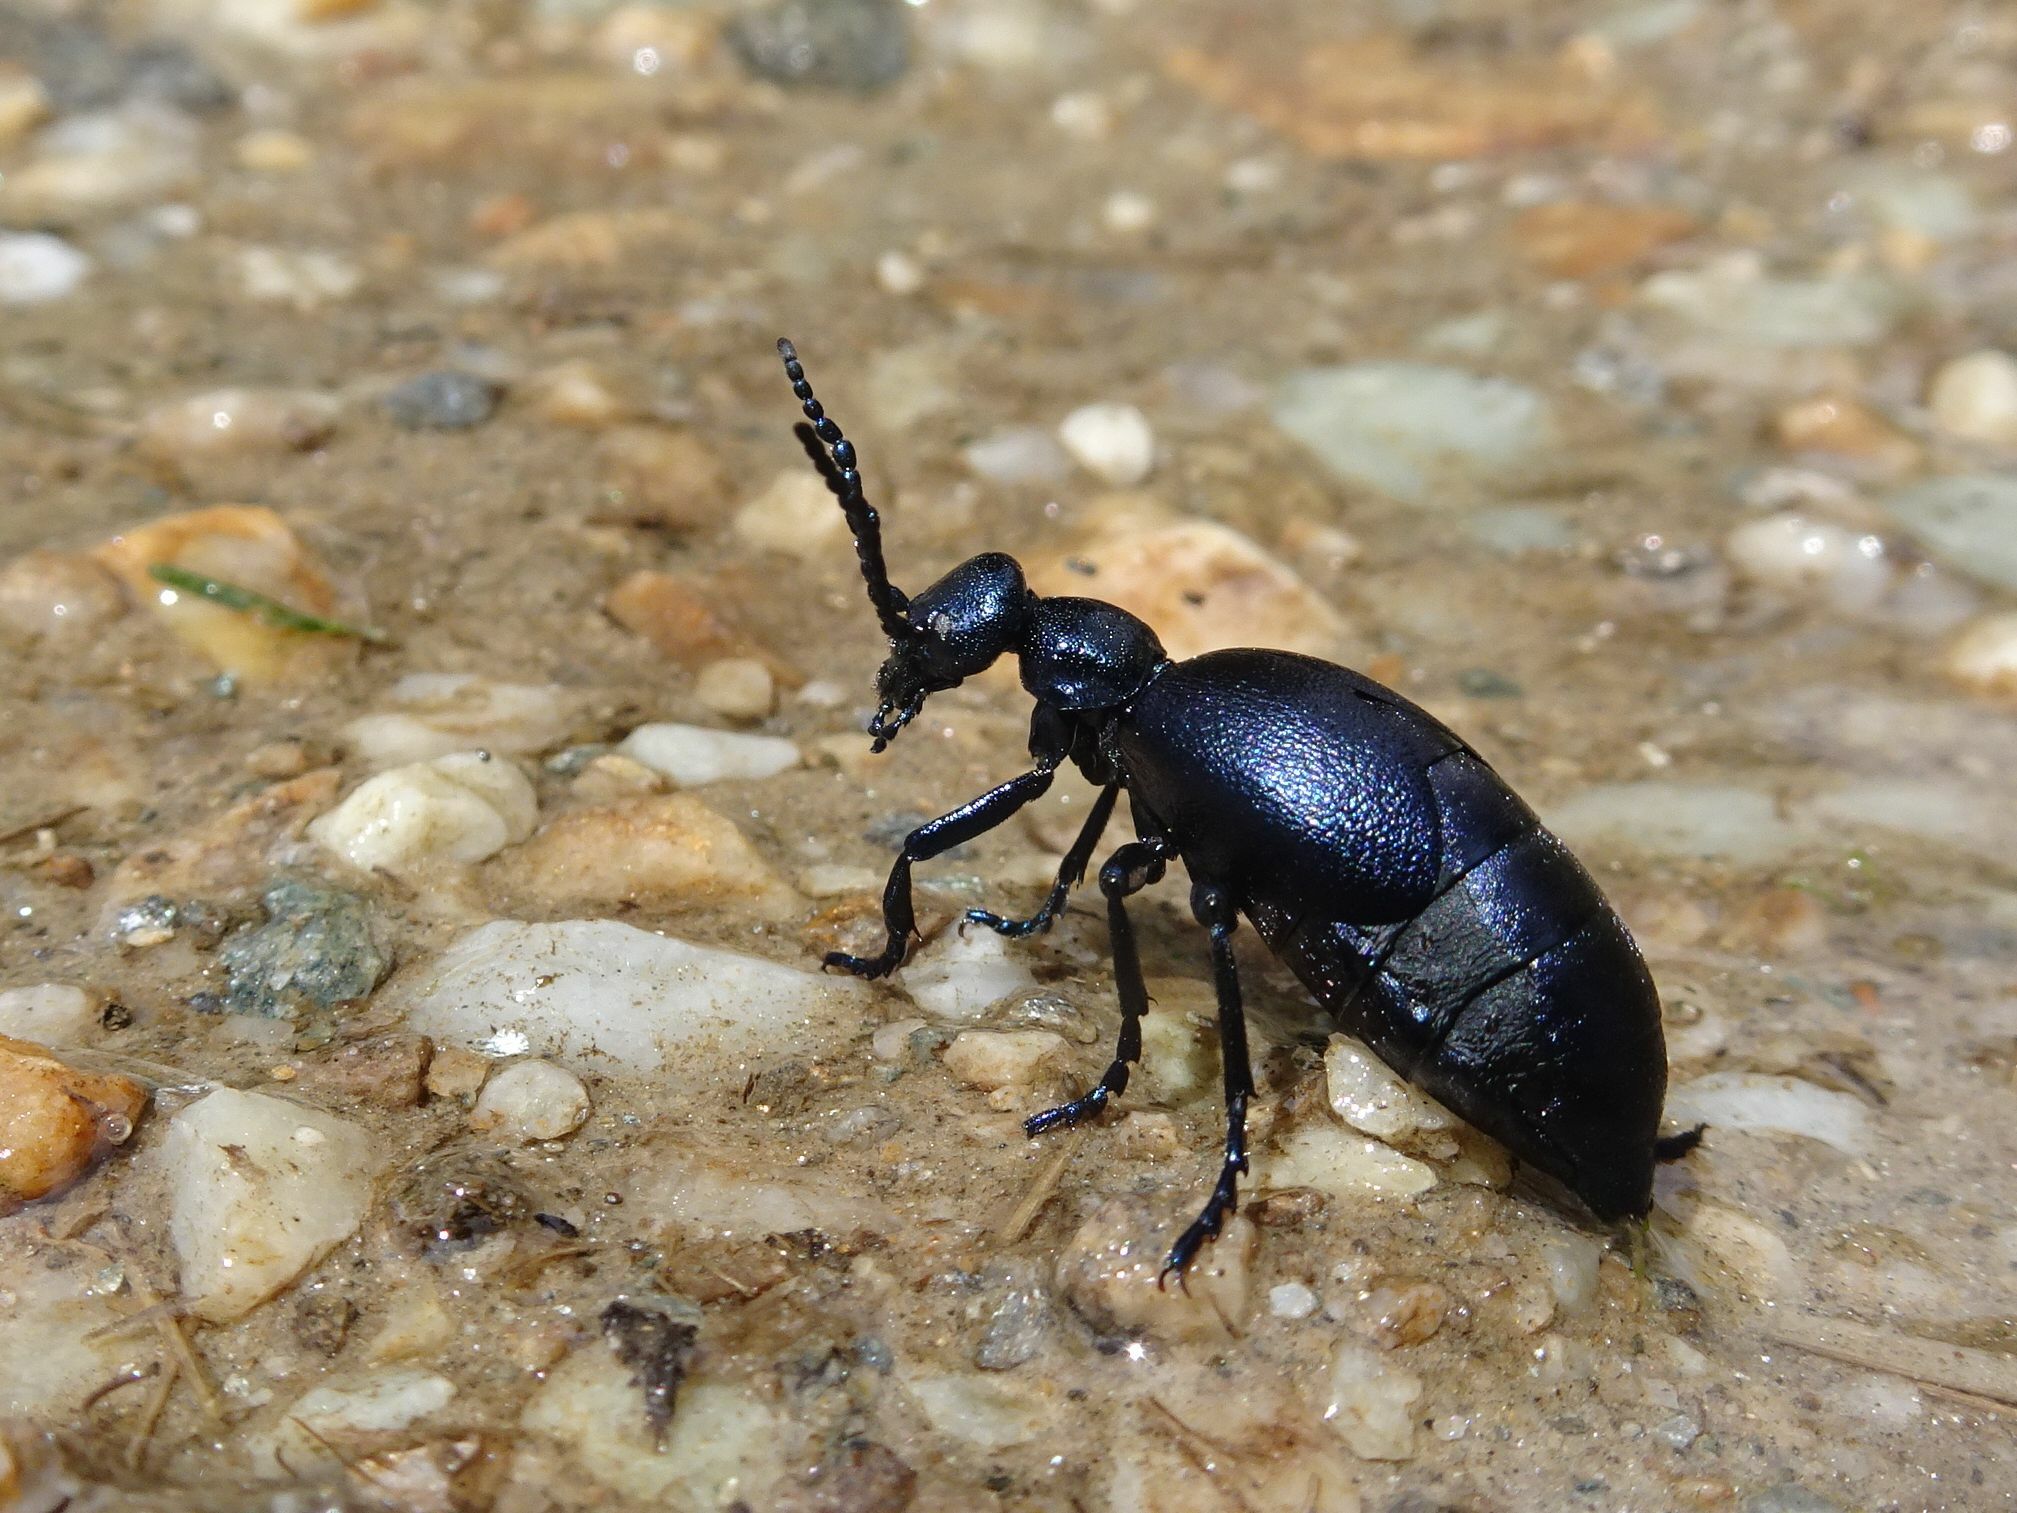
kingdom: Animalia
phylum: Arthropoda
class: Insecta
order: Coleoptera
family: Meloidae
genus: Meloe
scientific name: Meloe violaceus
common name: Violet oil-beetle
